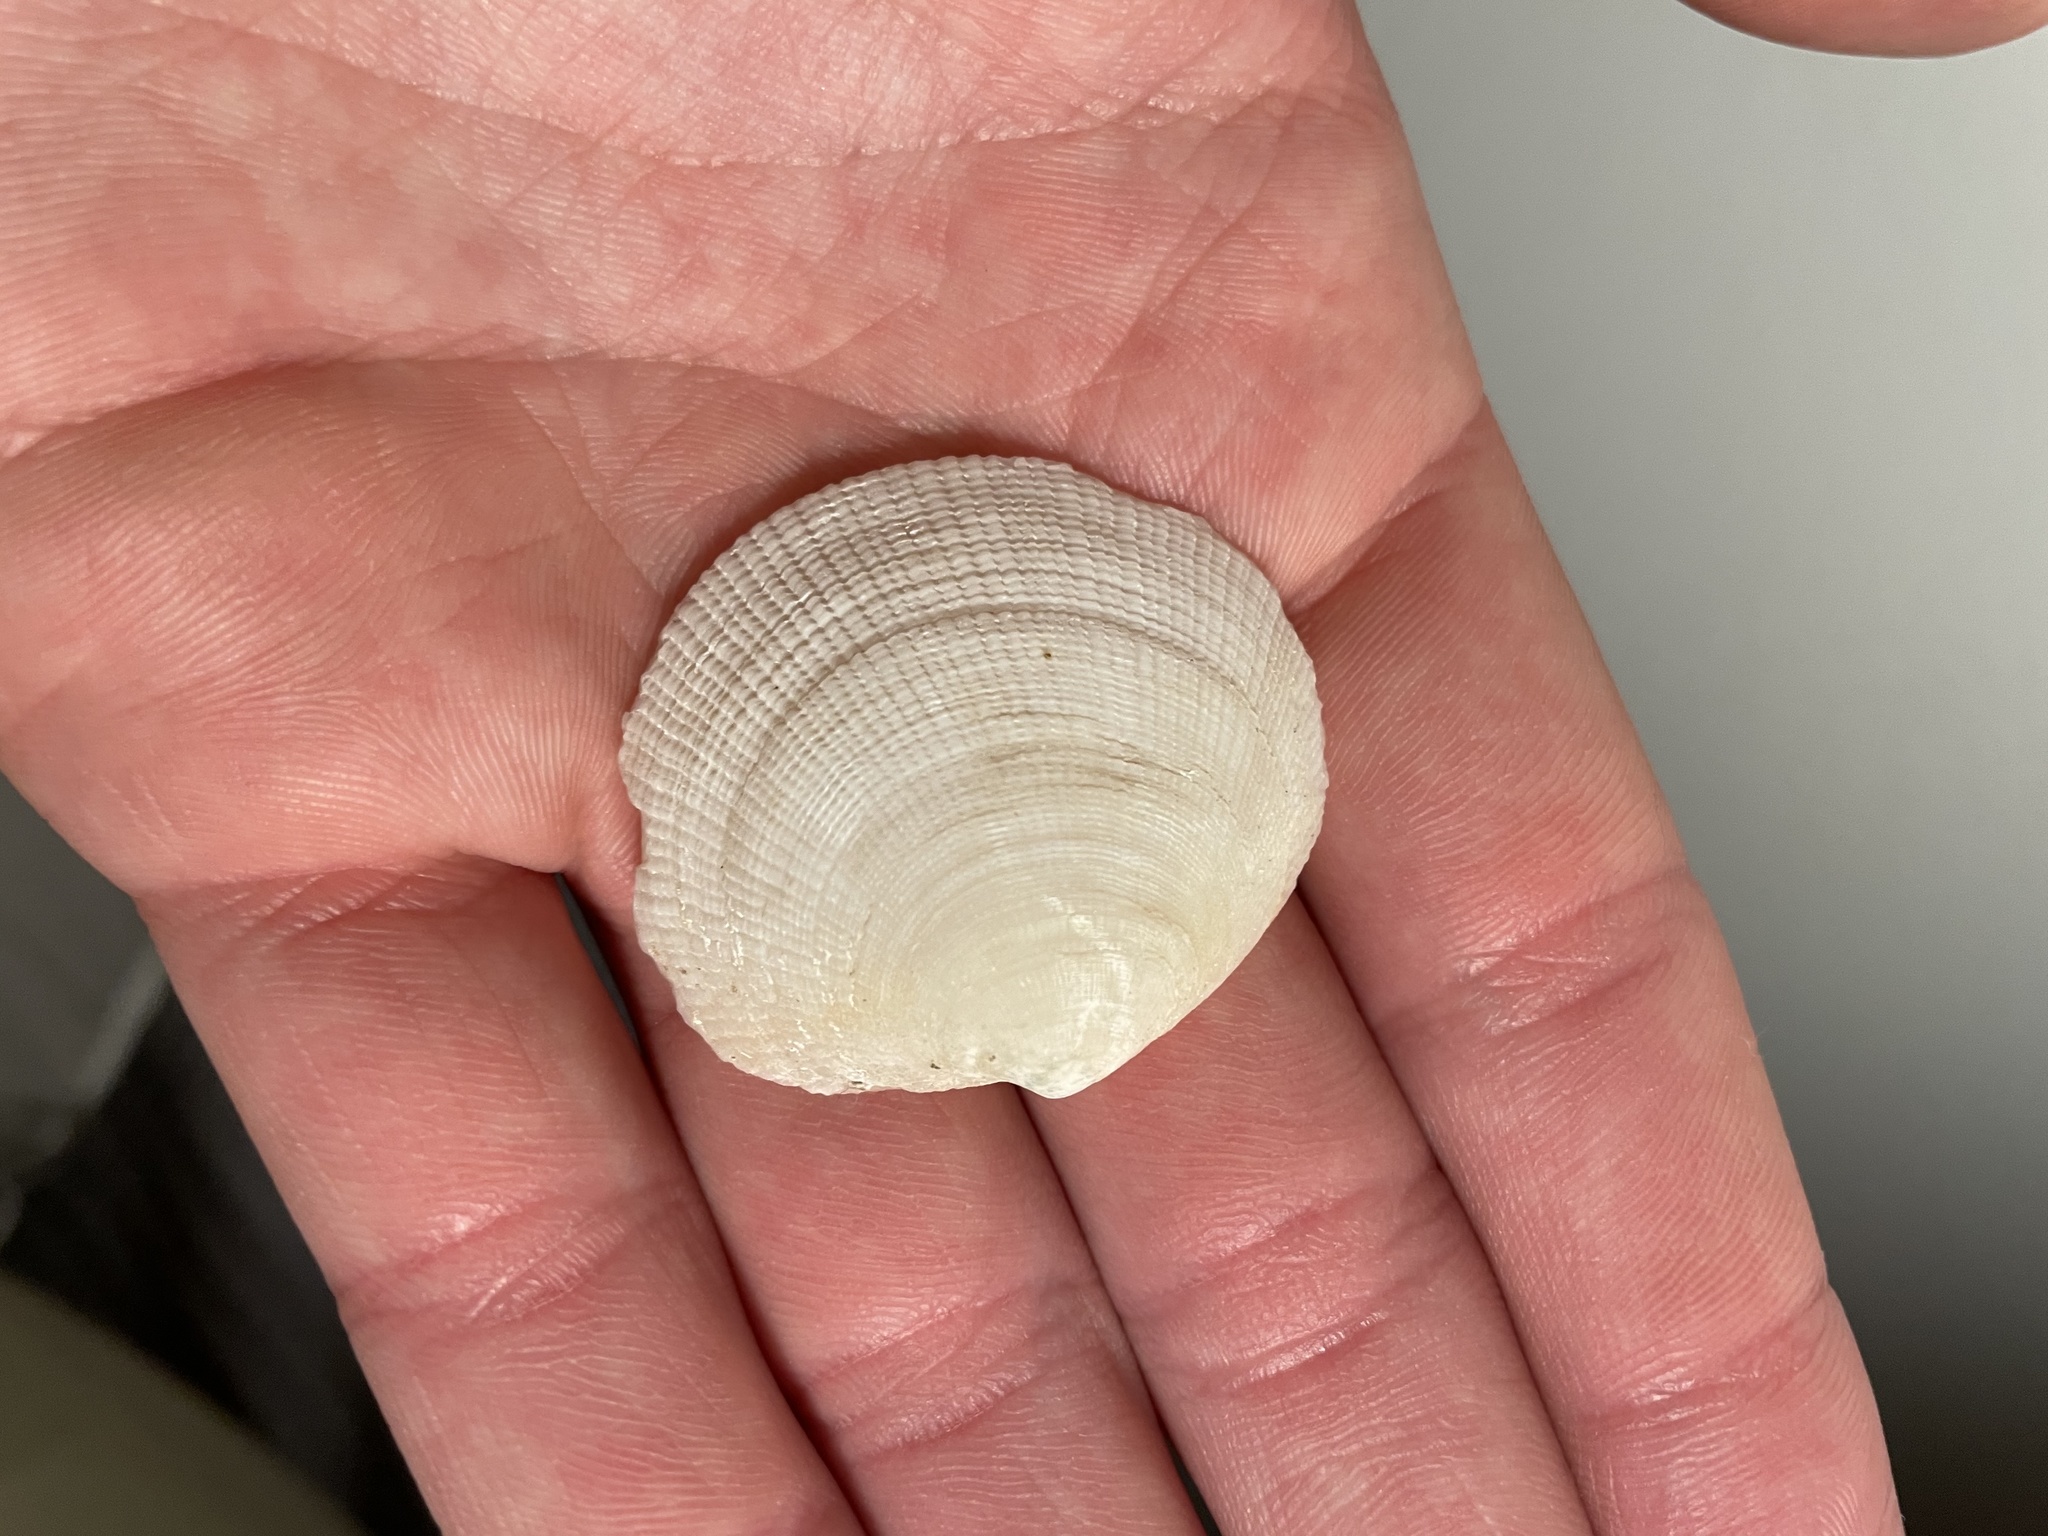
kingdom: Animalia
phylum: Mollusca
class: Bivalvia
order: Lucinida
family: Lucinidae
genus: Codakia
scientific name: Codakia orbicularis
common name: Tiger lucine
